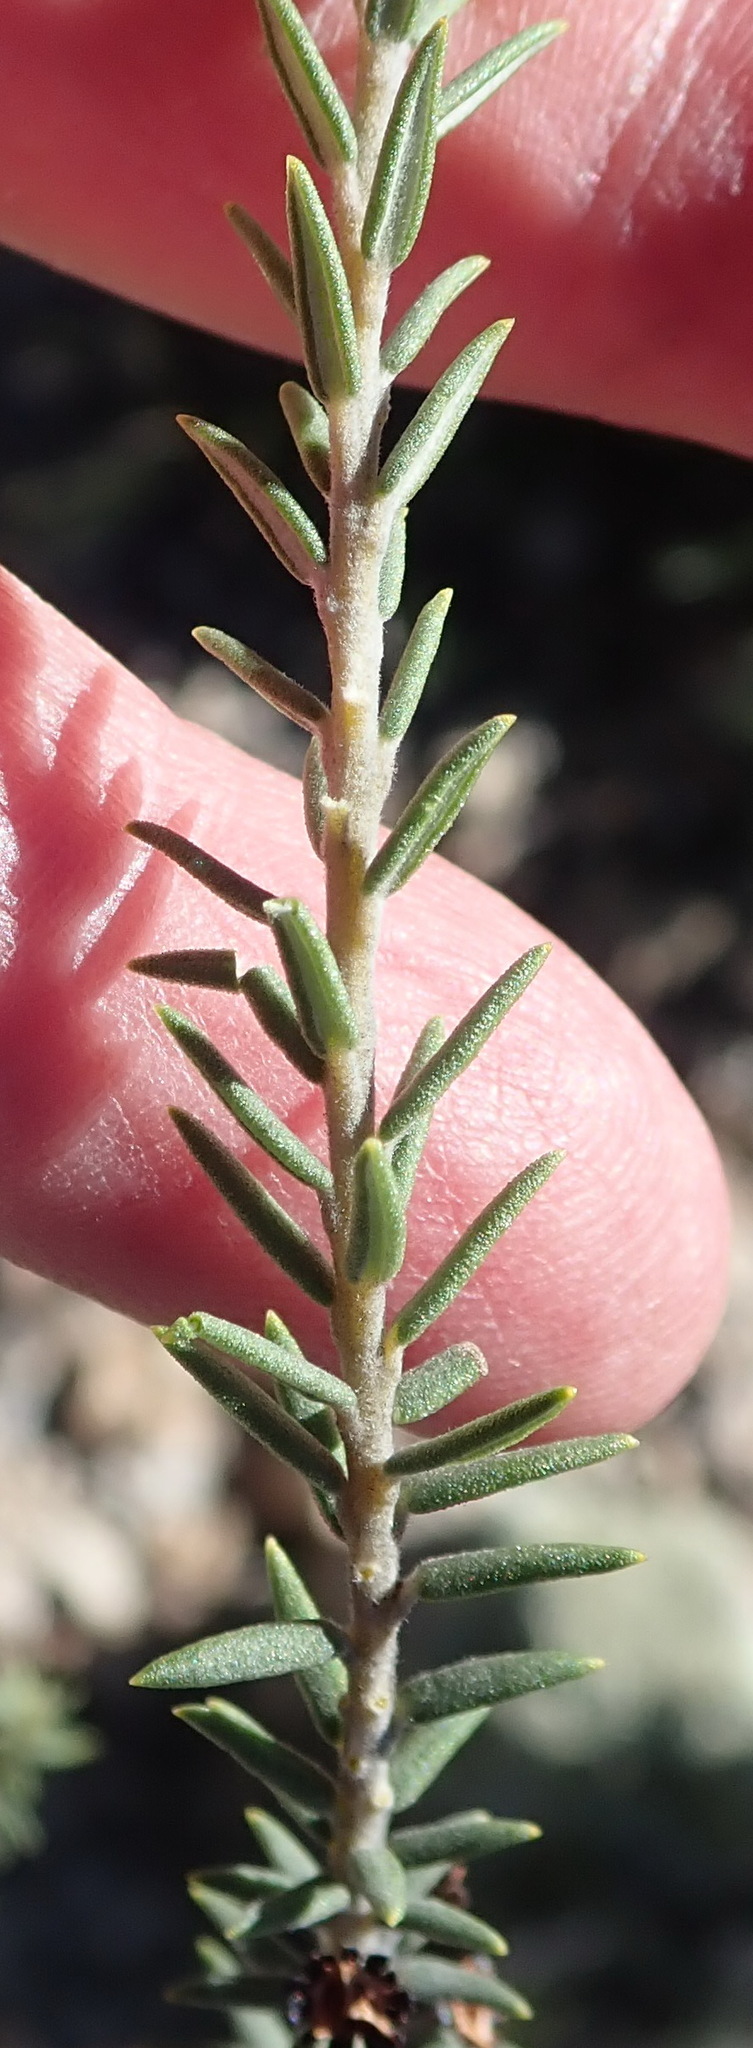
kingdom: Plantae
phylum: Tracheophyta
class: Magnoliopsida
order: Rosales
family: Rhamnaceae
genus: Phylica
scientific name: Phylica axillaris
